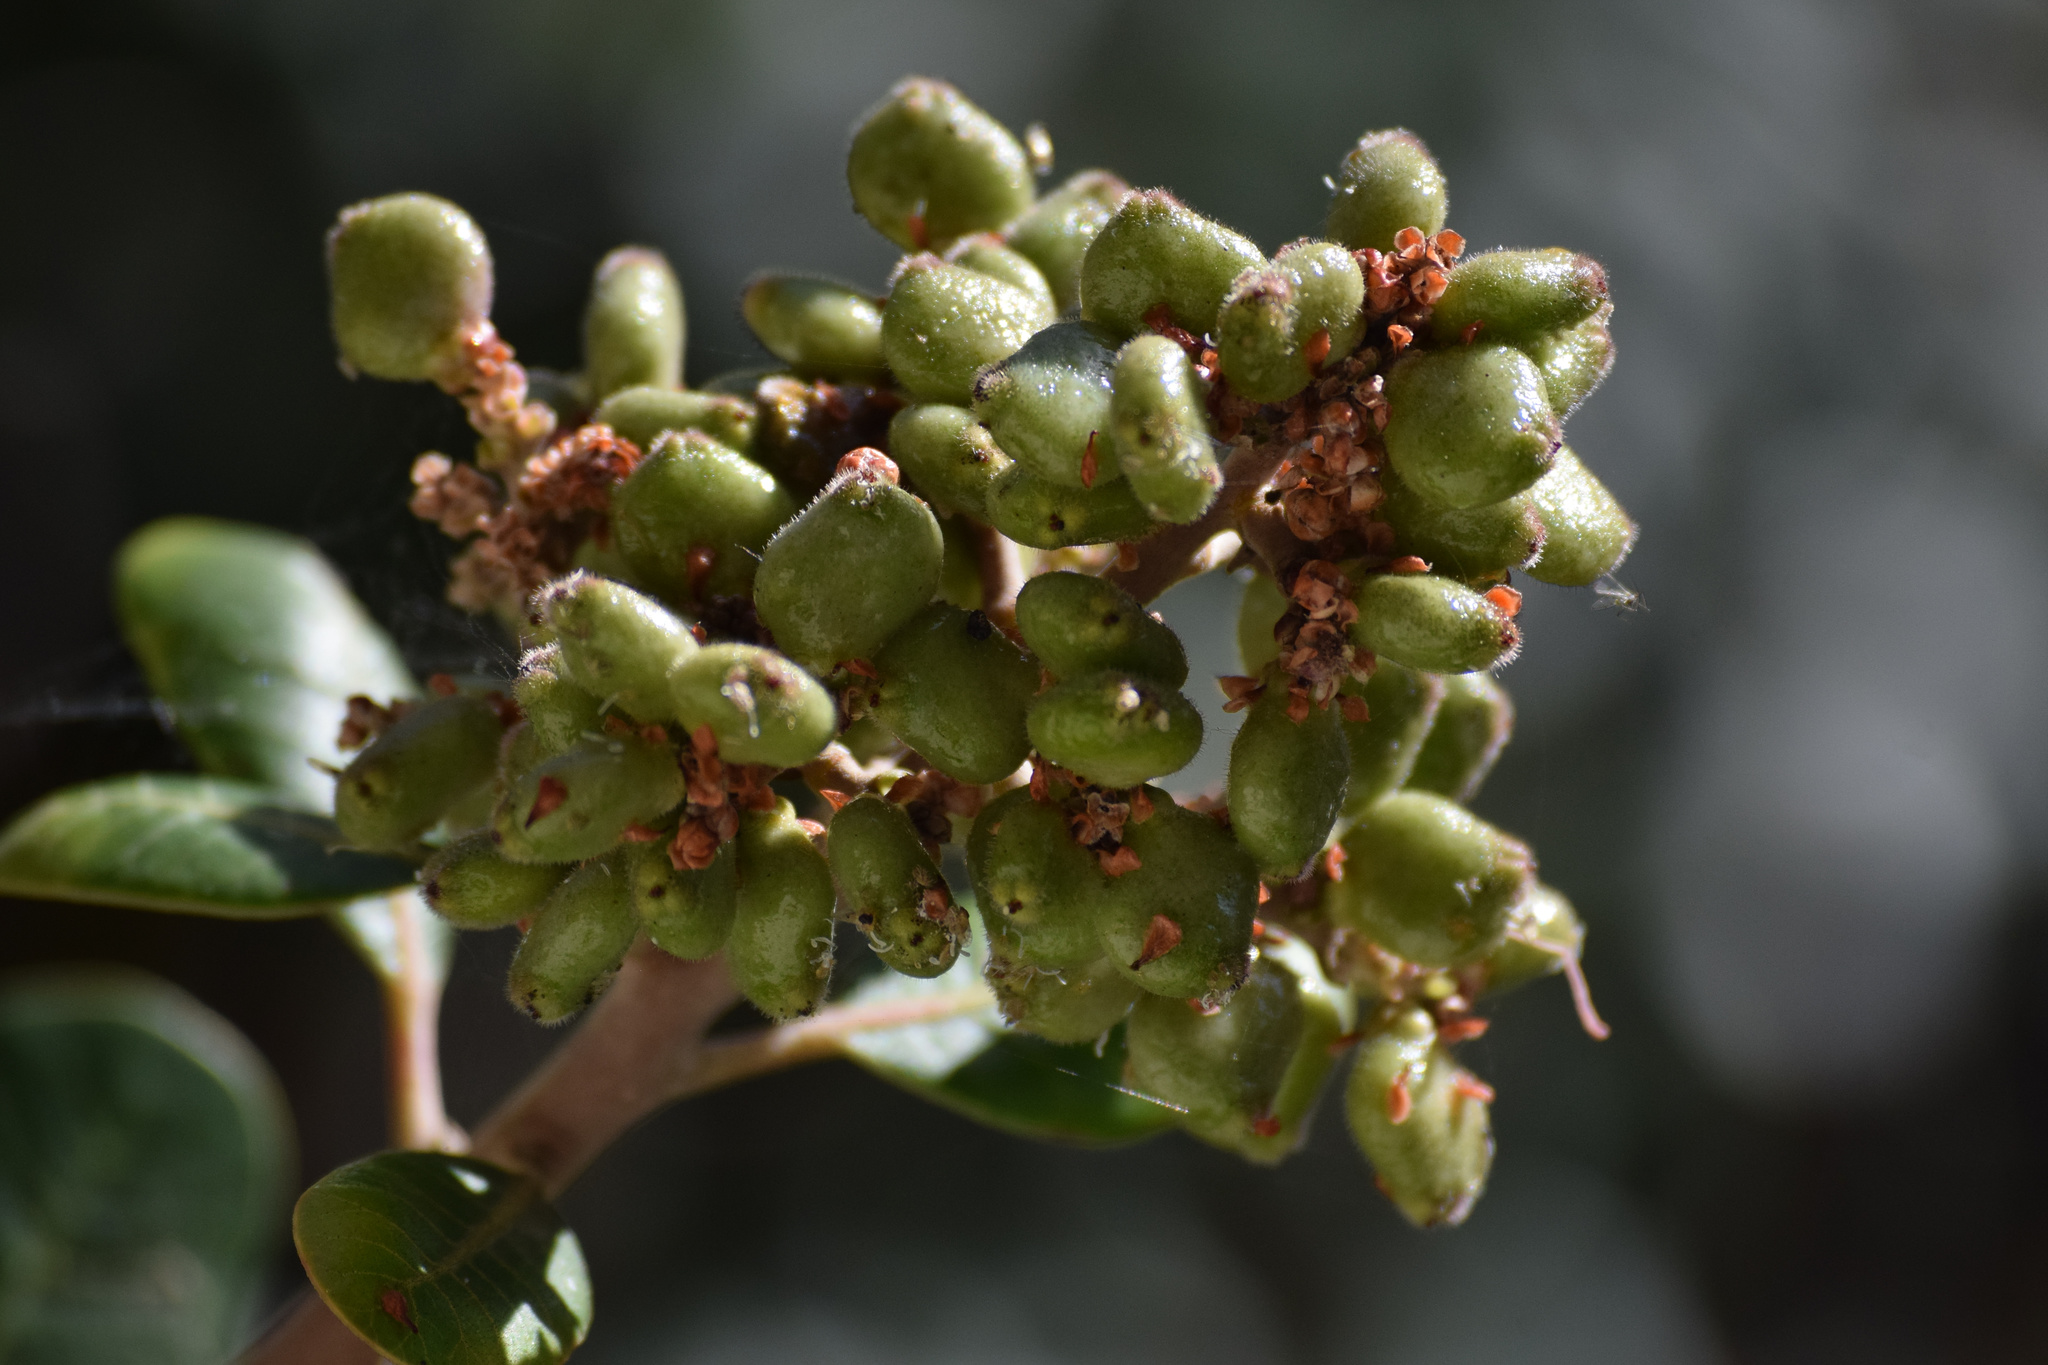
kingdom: Plantae
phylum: Tracheophyta
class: Magnoliopsida
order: Sapindales
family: Anacardiaceae
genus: Rhus
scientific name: Rhus integrifolia
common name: Lemonade sumac
